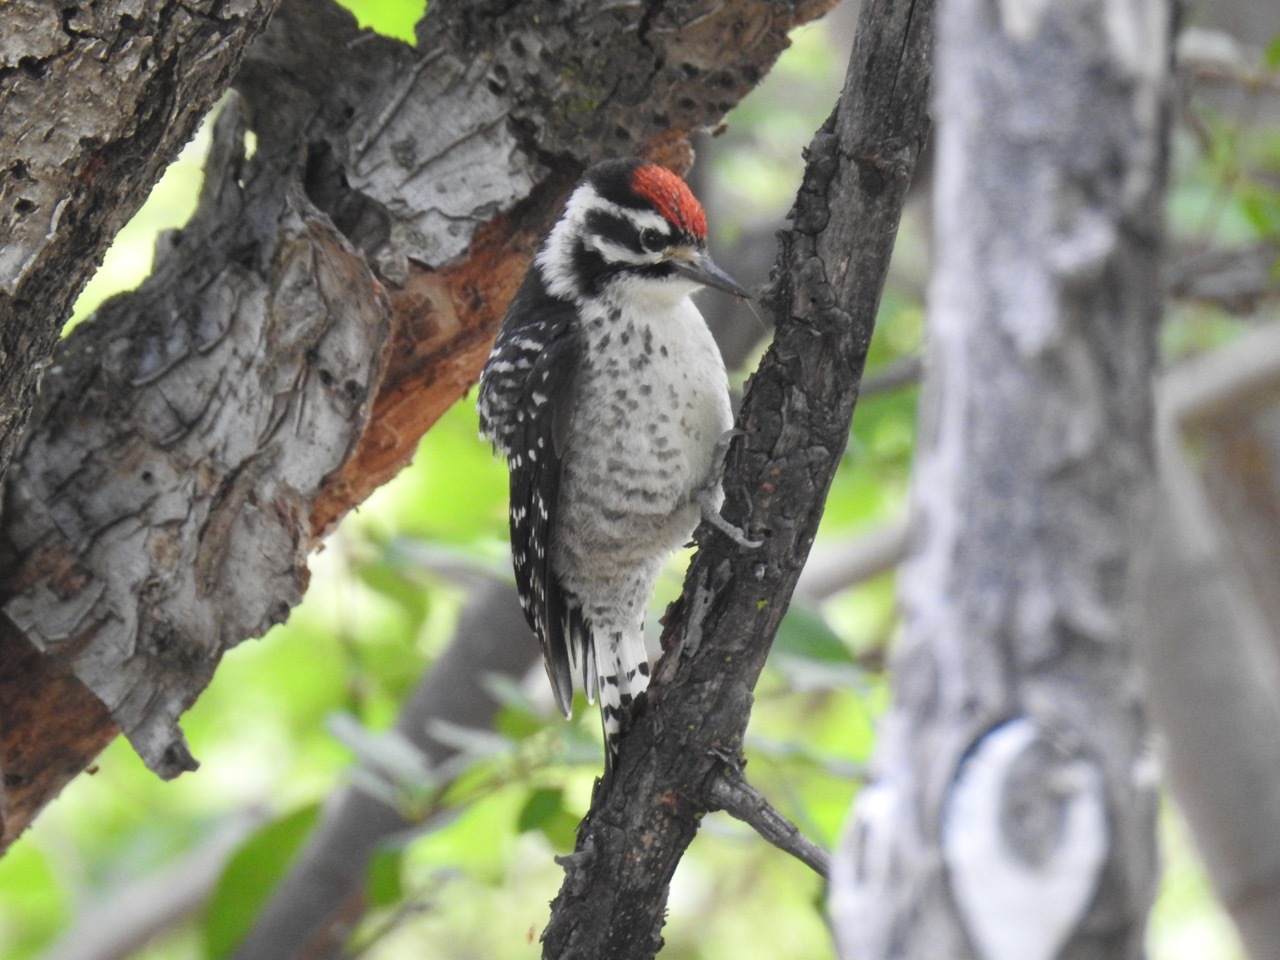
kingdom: Animalia
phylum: Chordata
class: Aves
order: Piciformes
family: Picidae
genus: Dryobates
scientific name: Dryobates nuttallii
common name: Nuttall's woodpecker
